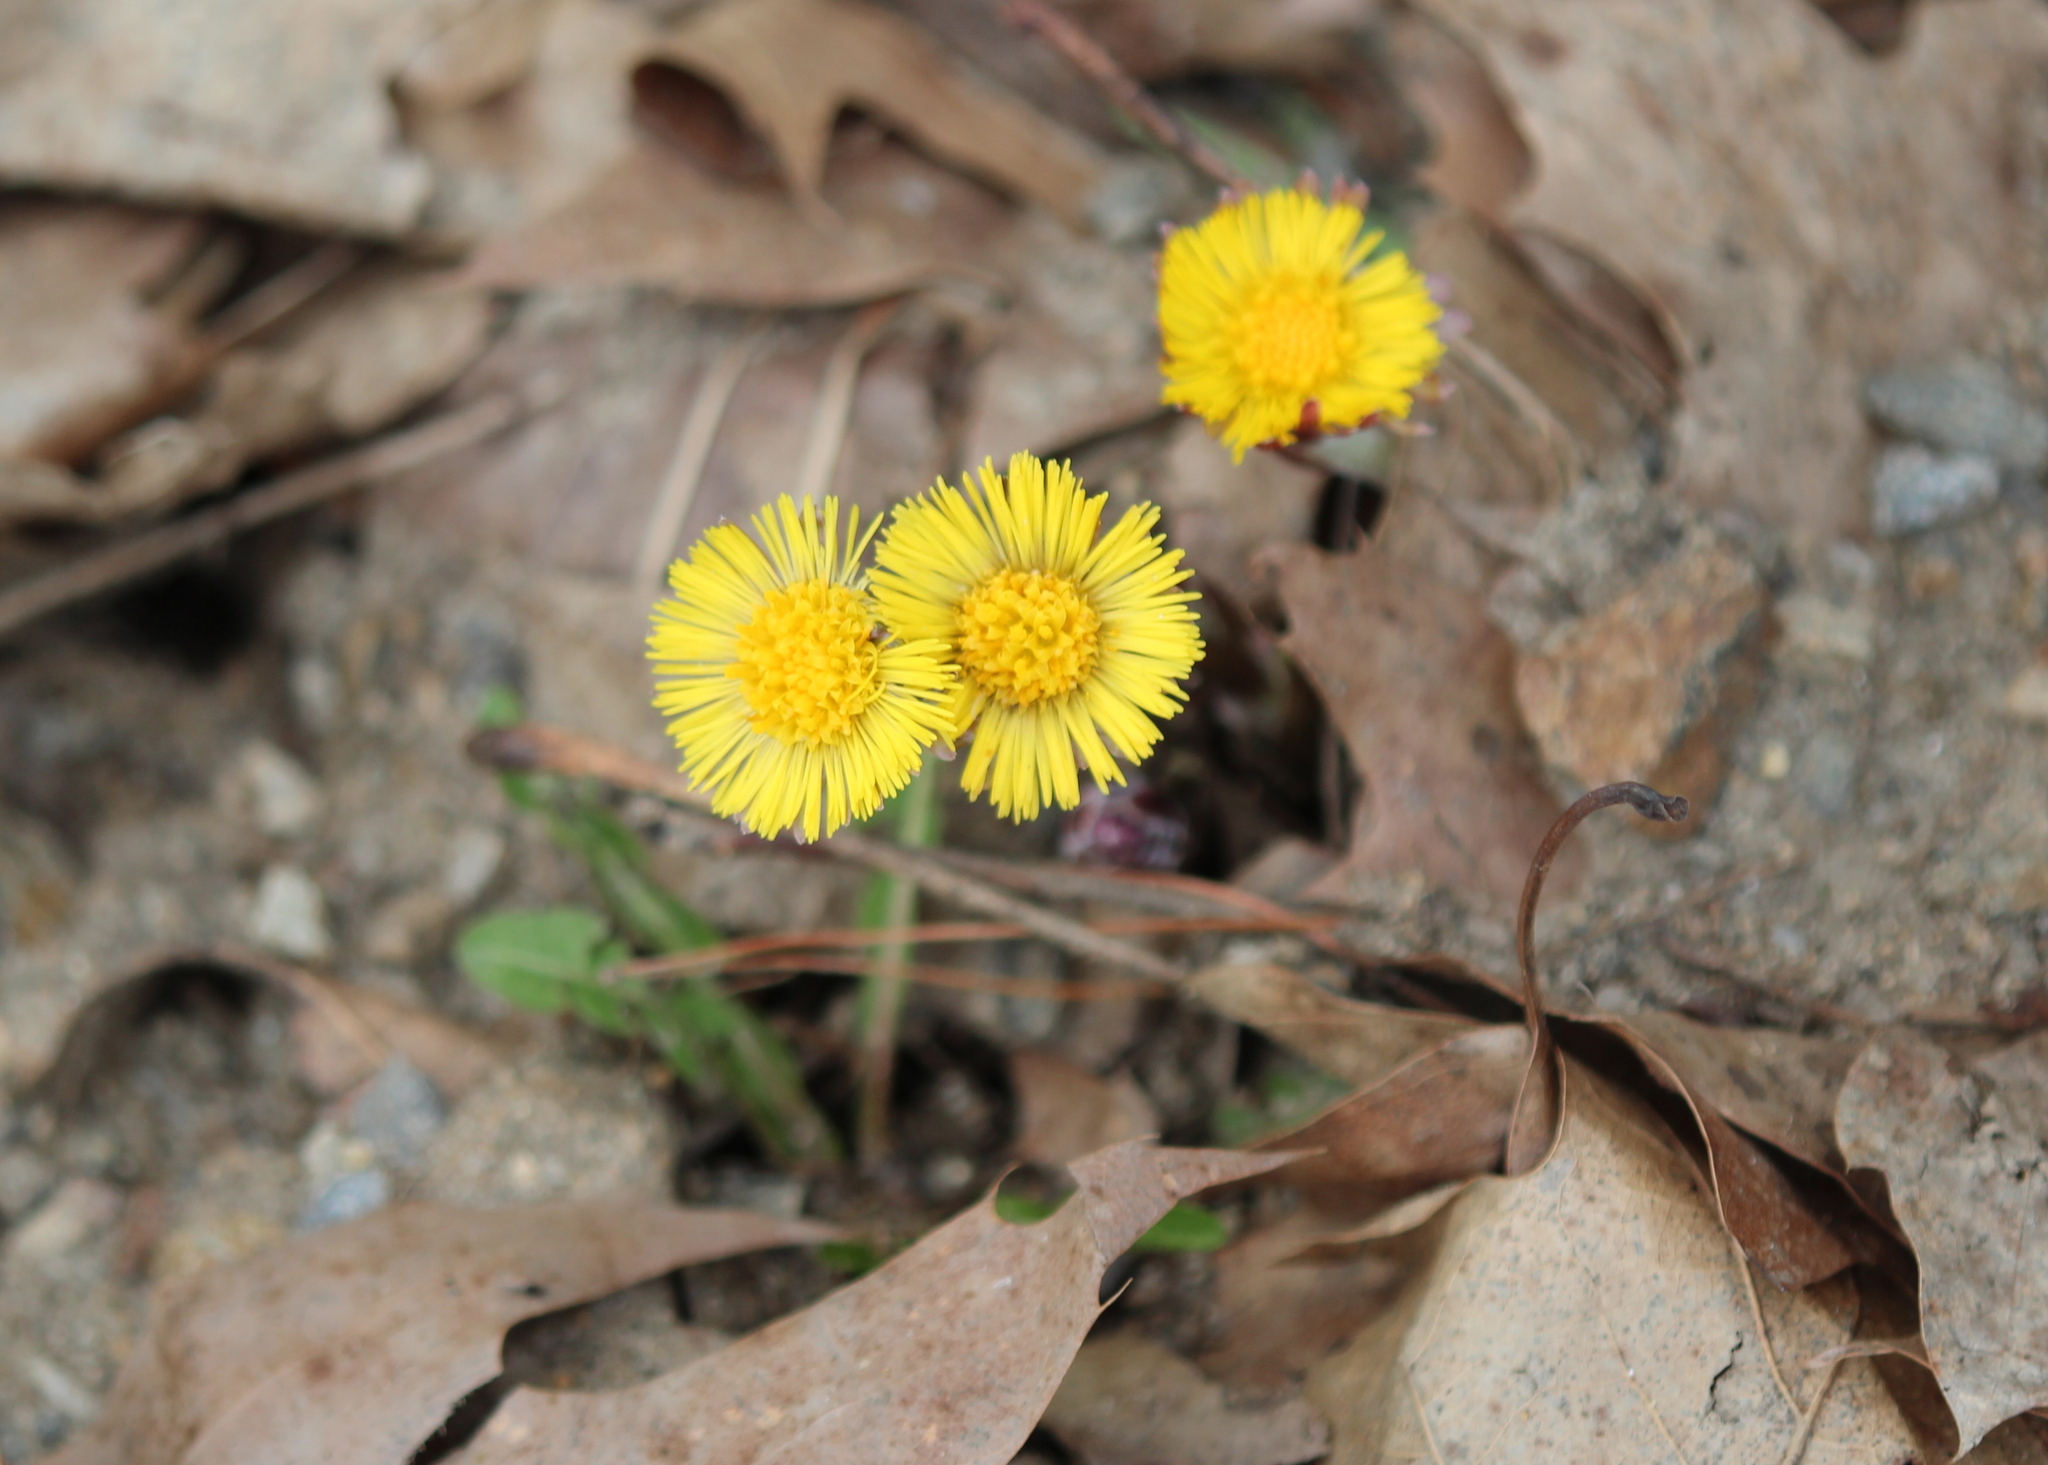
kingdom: Plantae
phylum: Tracheophyta
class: Magnoliopsida
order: Asterales
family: Asteraceae
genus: Tussilago
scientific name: Tussilago farfara
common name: Coltsfoot
